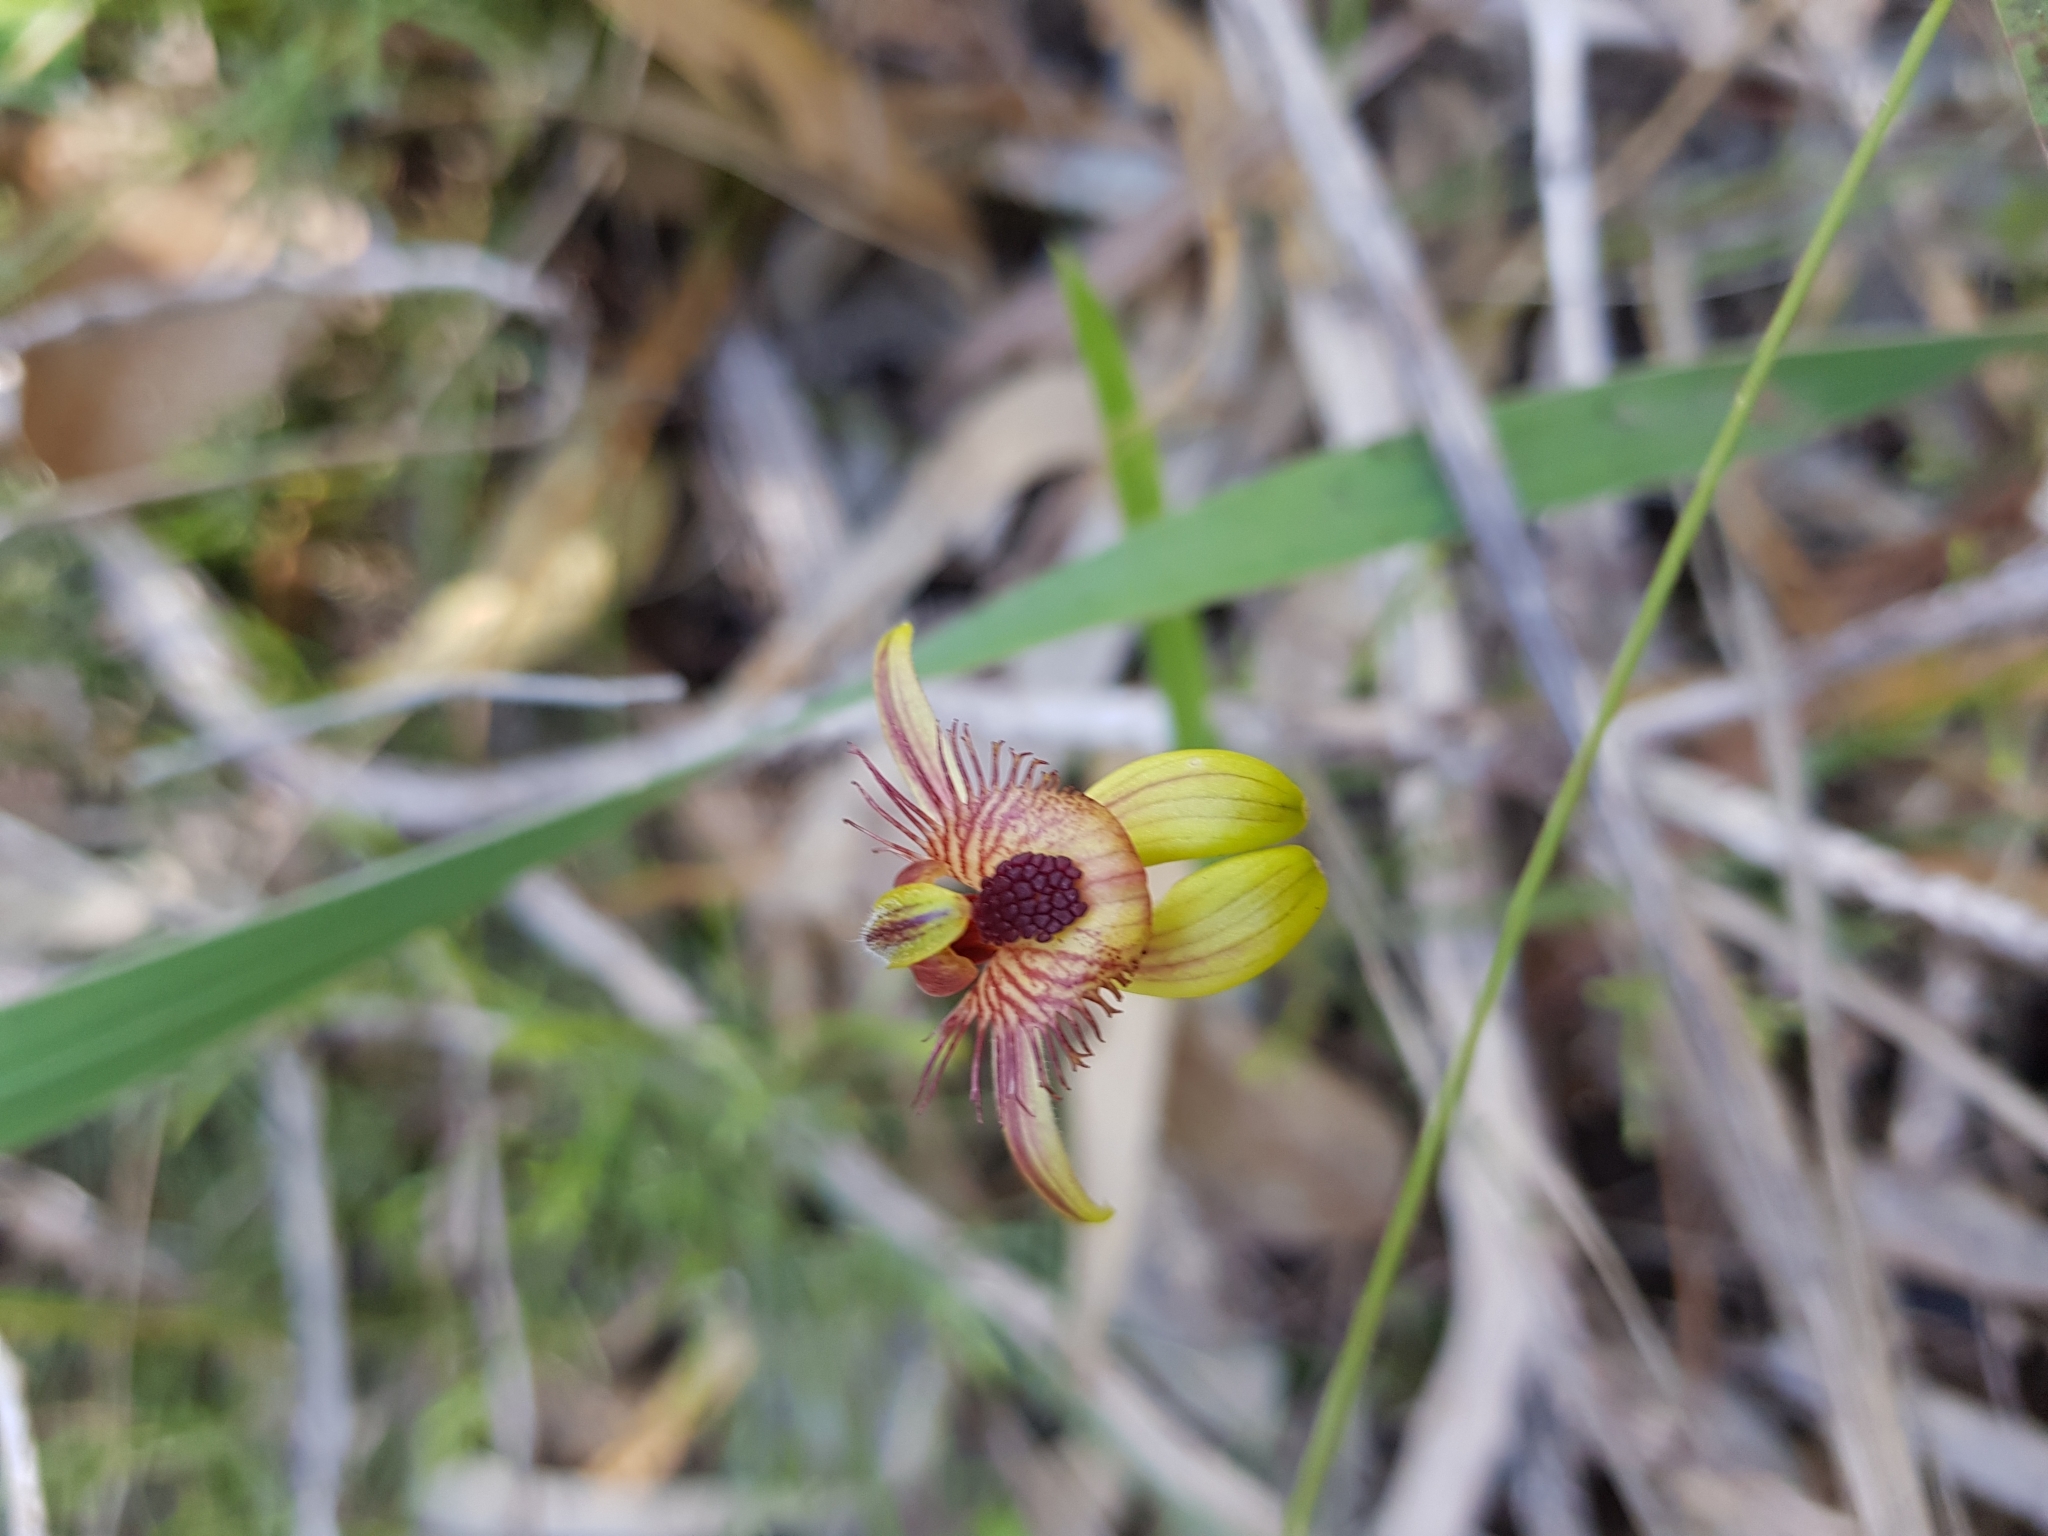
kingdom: Plantae
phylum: Tracheophyta
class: Liliopsida
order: Asparagales
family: Orchidaceae
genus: Caladenia
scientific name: Caladenia discoidea
